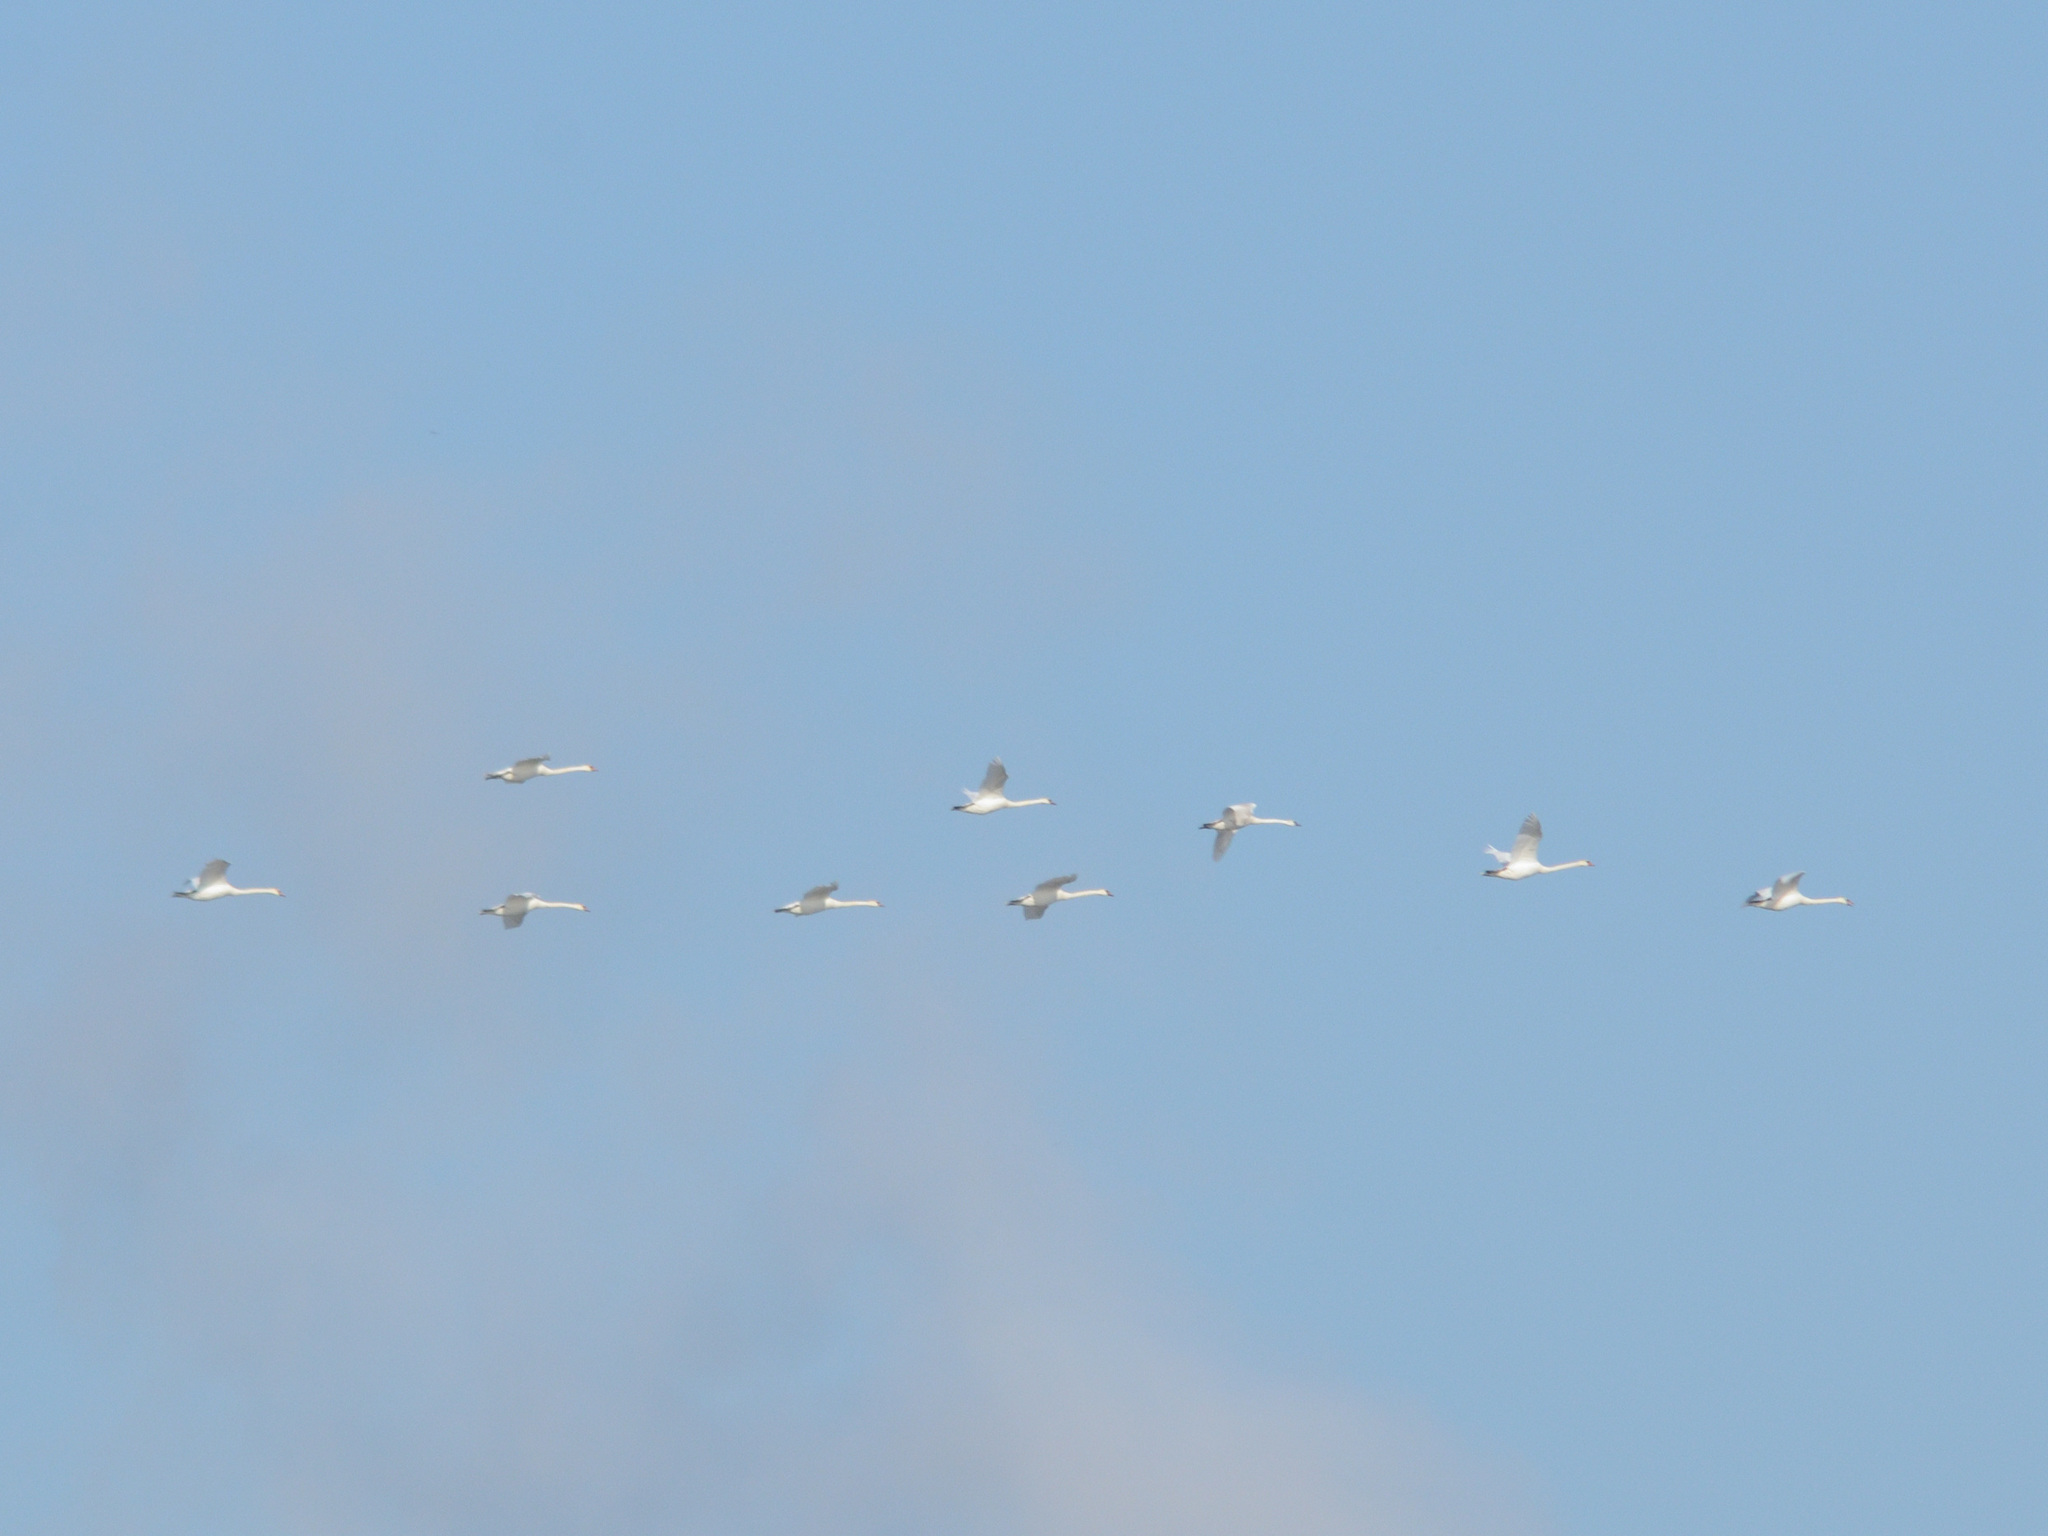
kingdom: Animalia
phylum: Chordata
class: Aves
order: Anseriformes
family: Anatidae
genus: Cygnus
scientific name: Cygnus olor
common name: Mute swan
